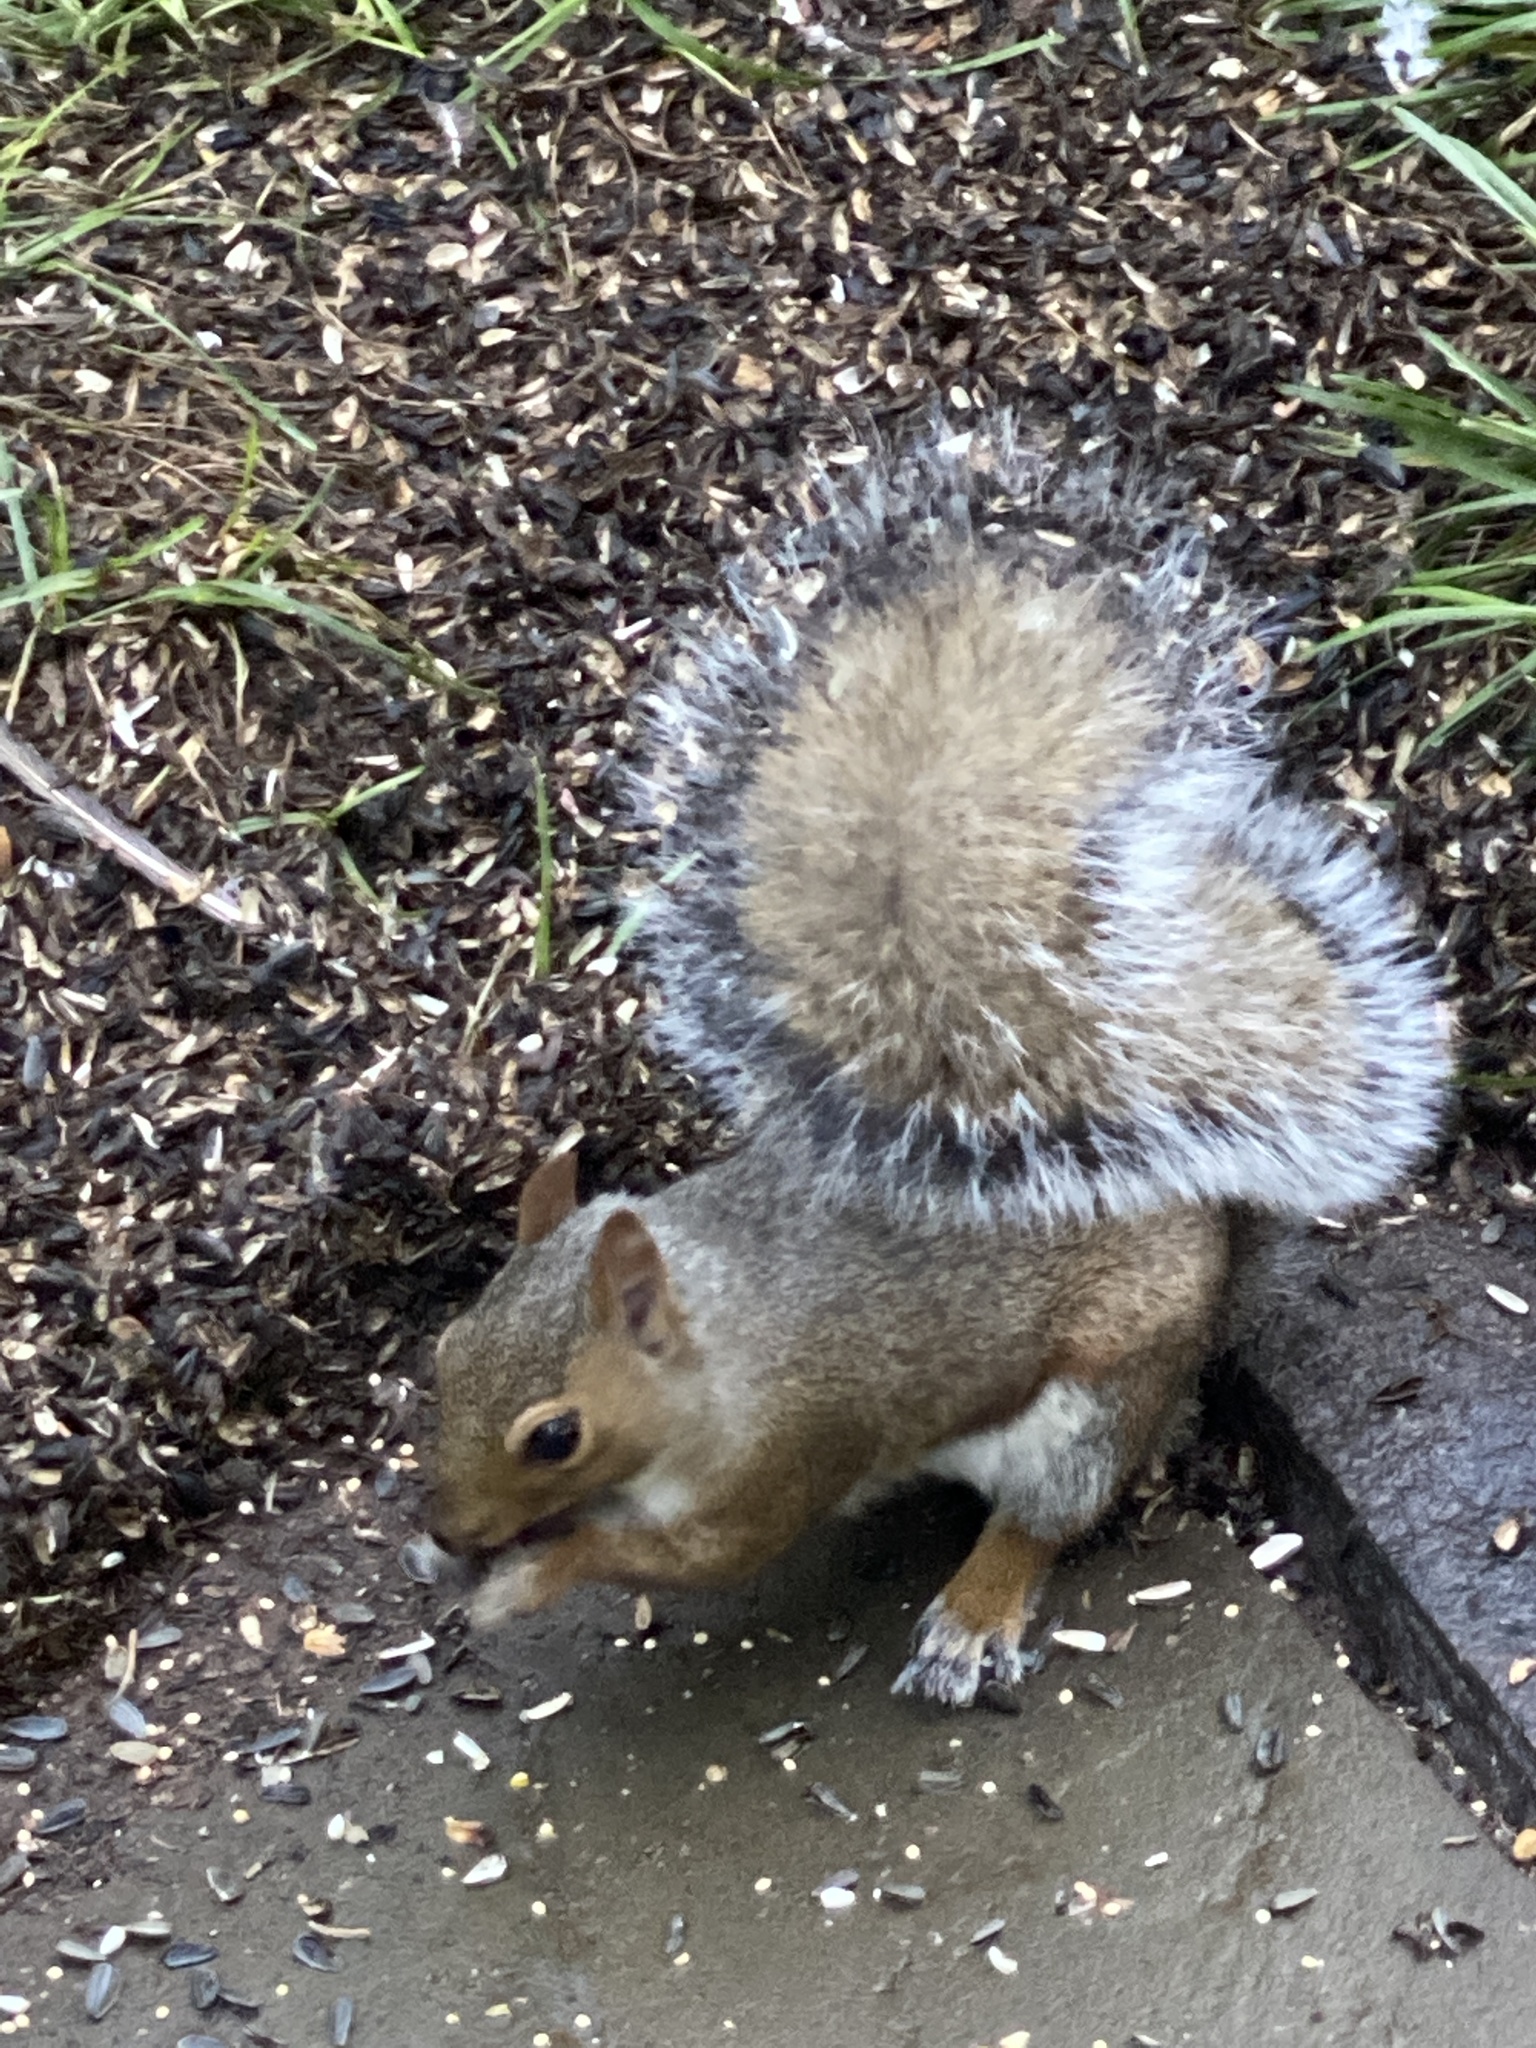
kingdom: Animalia
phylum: Chordata
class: Mammalia
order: Rodentia
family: Sciuridae
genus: Sciurus
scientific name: Sciurus carolinensis
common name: Eastern gray squirrel
